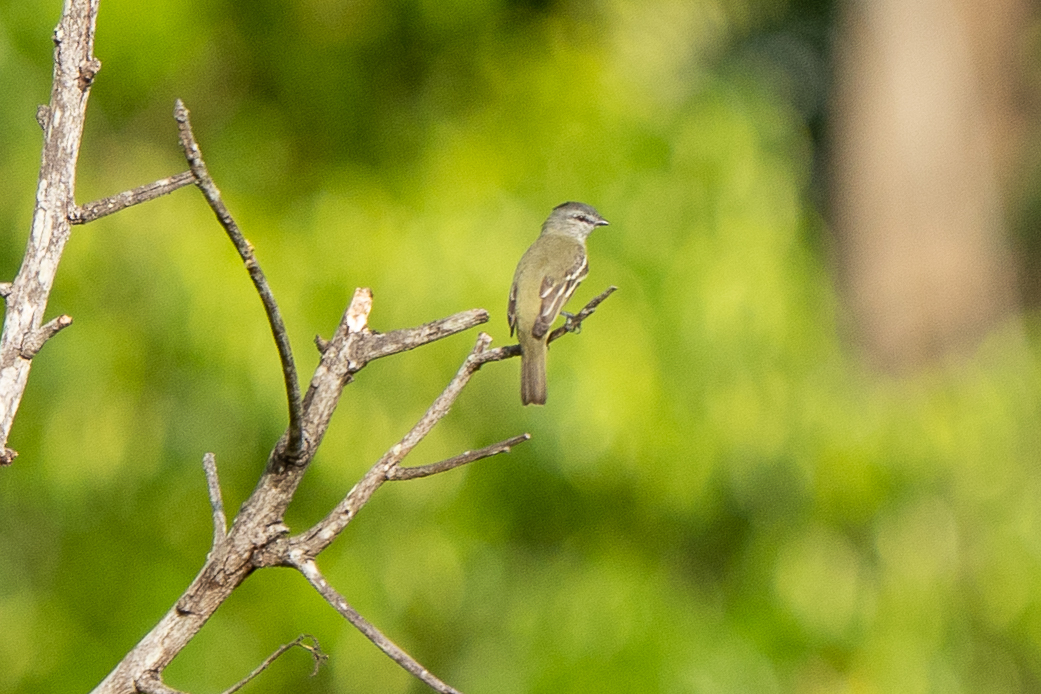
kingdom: Animalia
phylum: Chordata
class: Aves
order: Passeriformes
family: Tyrannidae
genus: Tyrannulus
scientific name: Tyrannulus elatus
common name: Yellow-crowned tyrannulet
